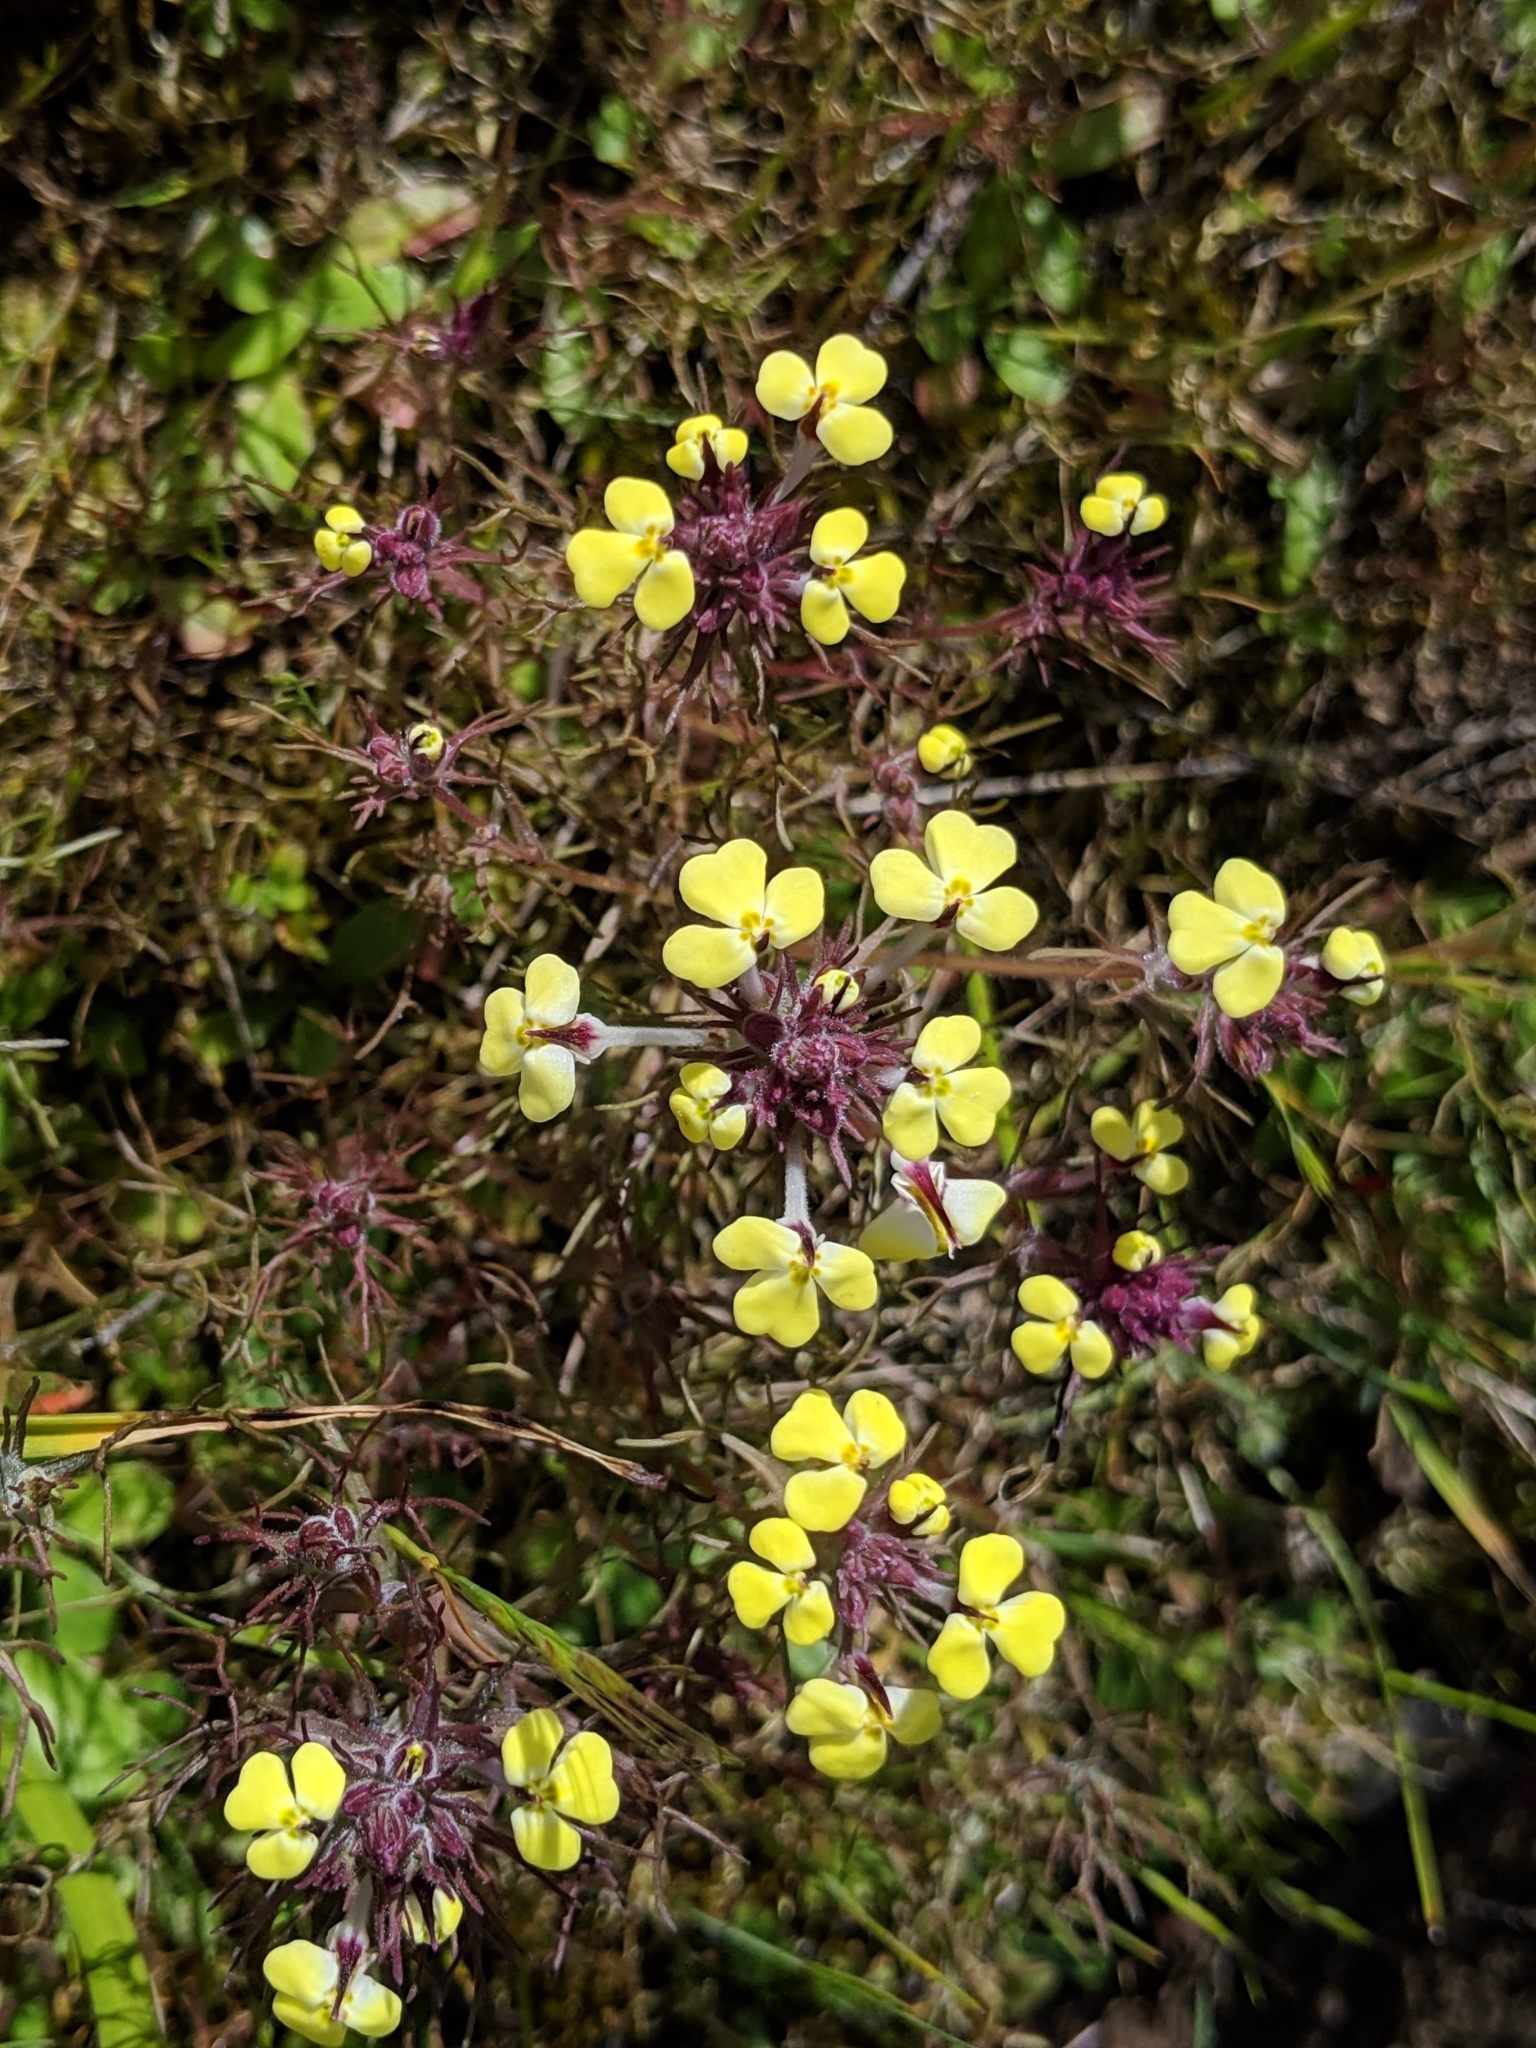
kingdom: Plantae
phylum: Tracheophyta
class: Magnoliopsida
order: Lamiales
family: Orobanchaceae
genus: Triphysaria
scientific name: Triphysaria eriantha
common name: Johnny-tuck
